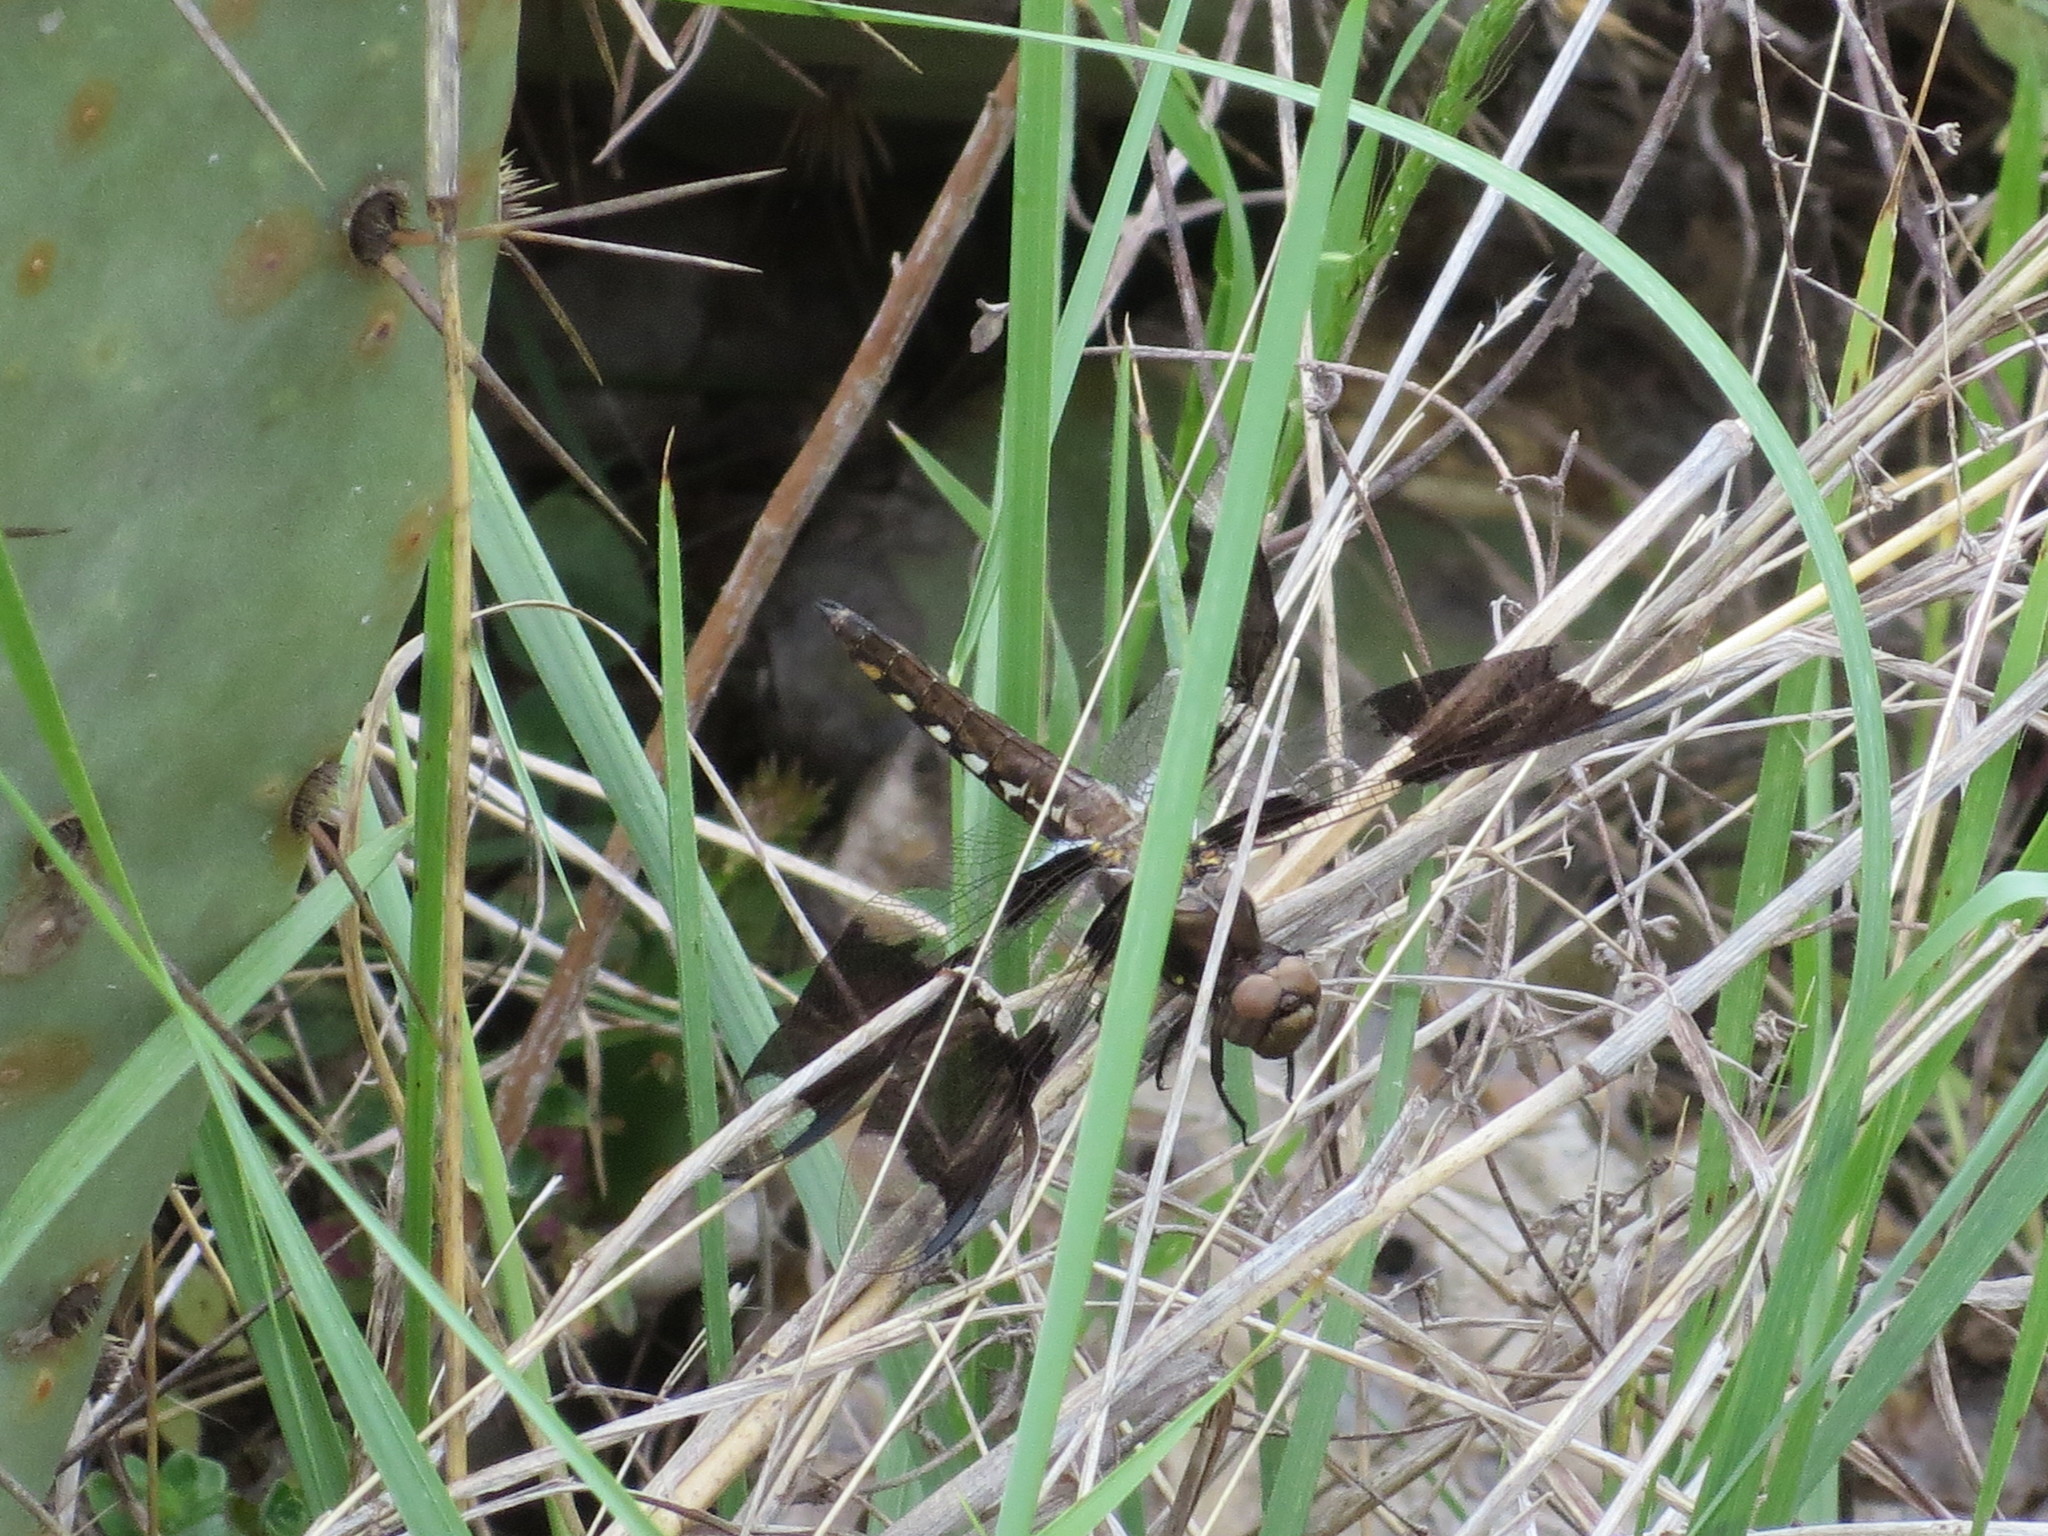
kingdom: Animalia
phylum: Arthropoda
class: Insecta
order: Odonata
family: Libellulidae
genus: Plathemis
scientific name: Plathemis lydia
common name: Common whitetail
